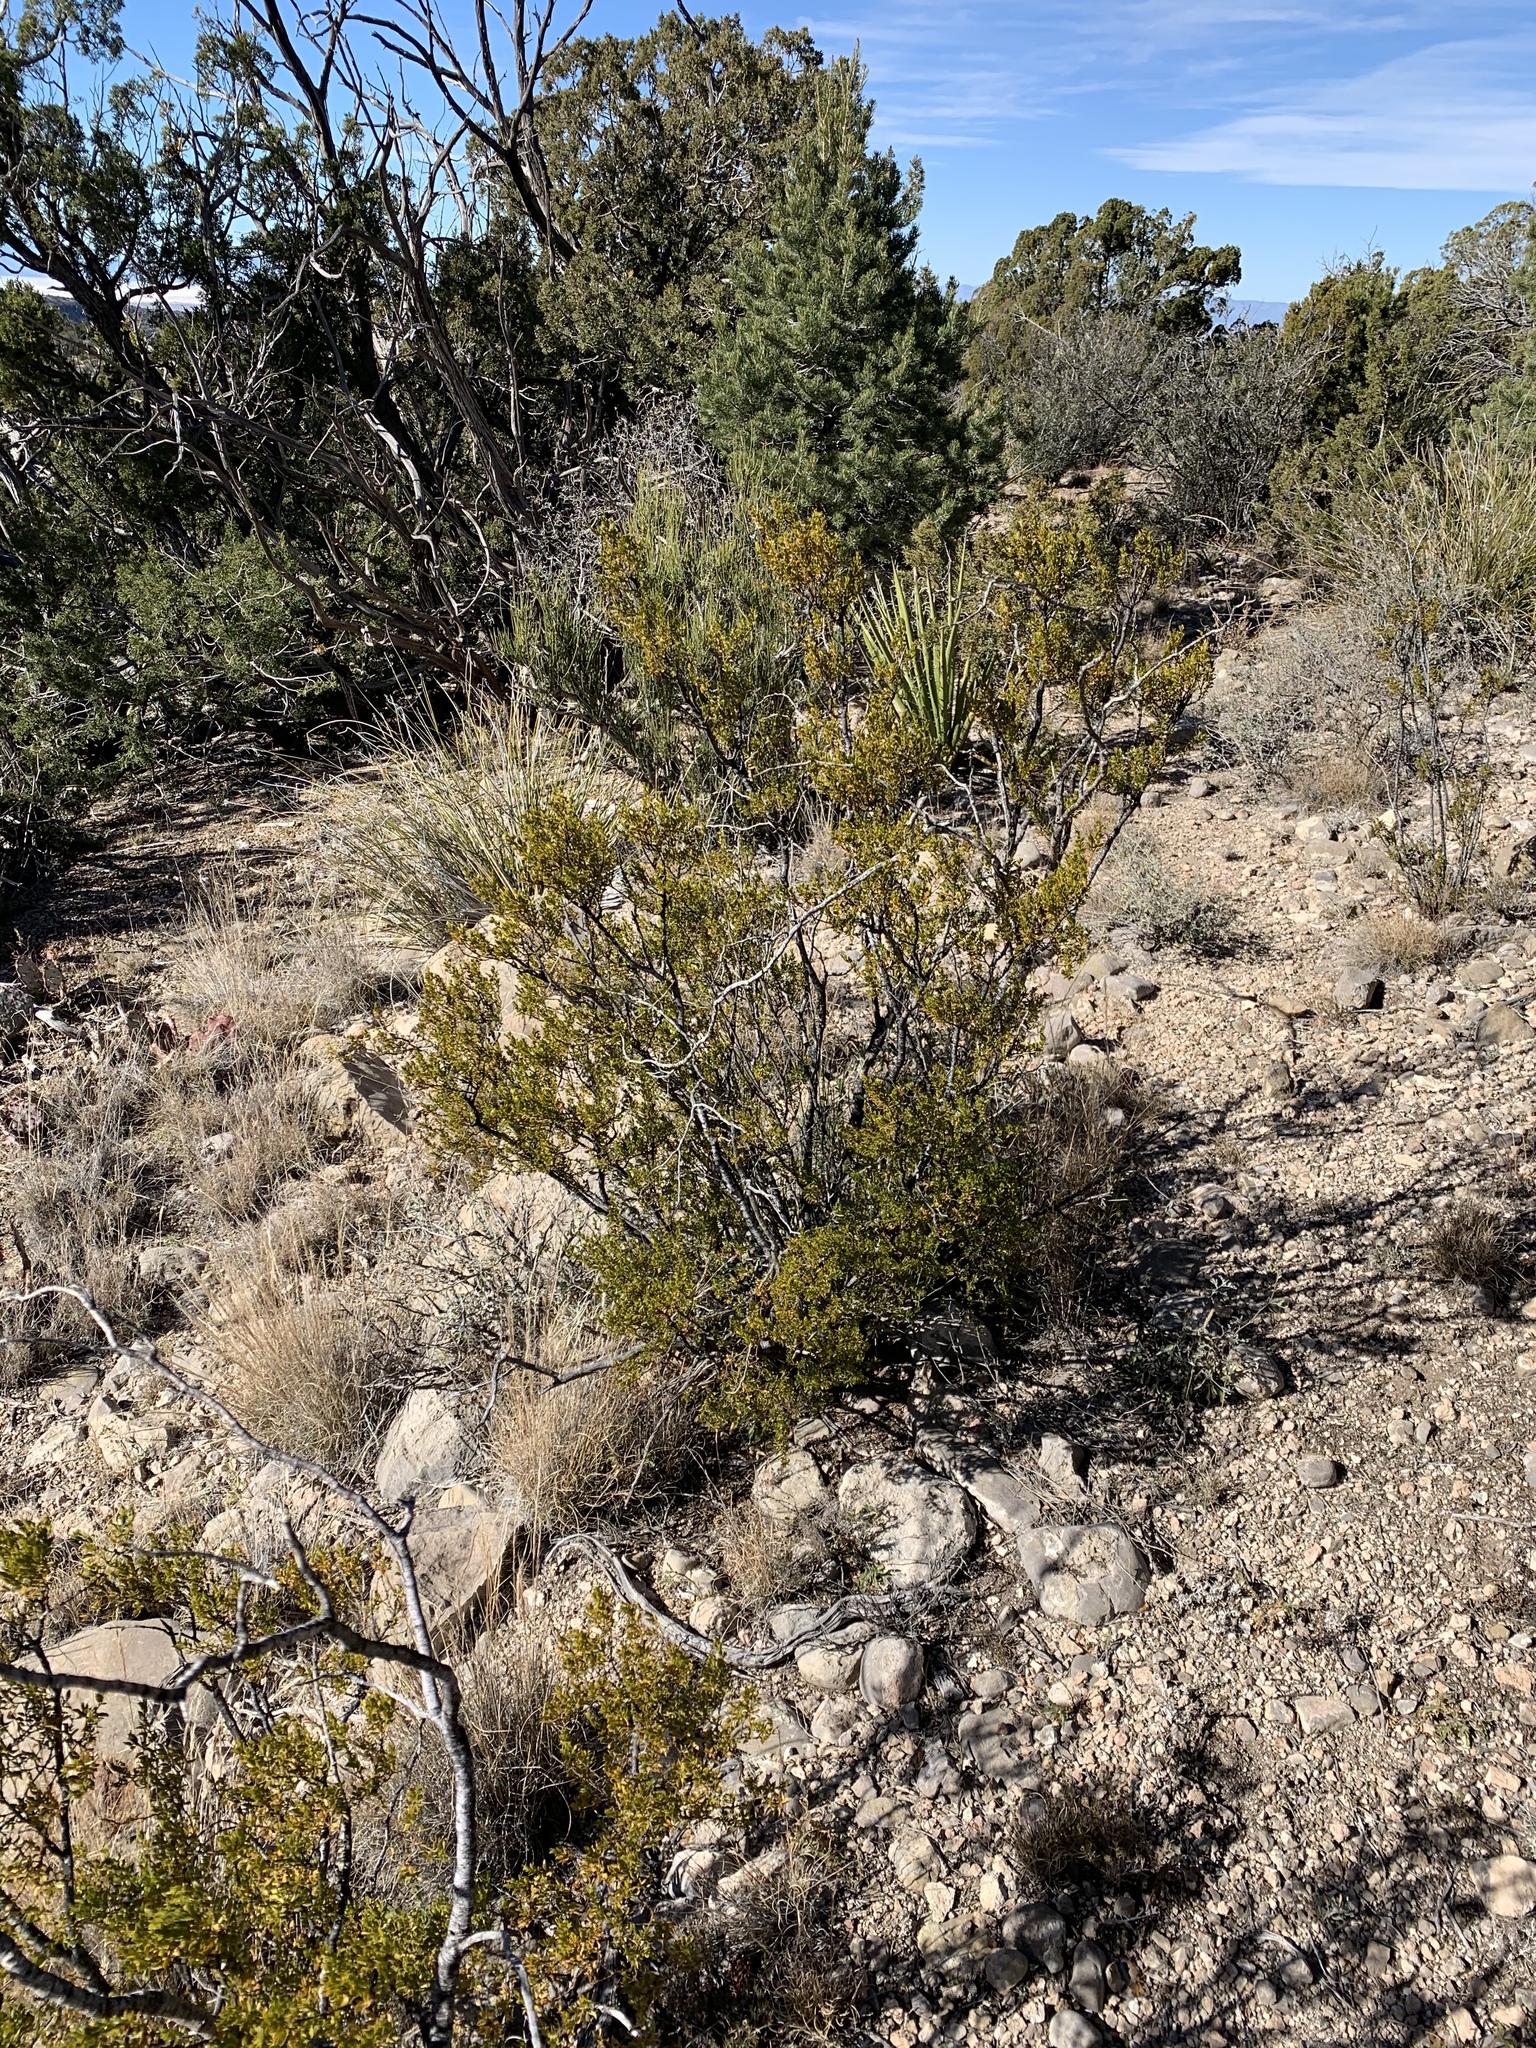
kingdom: Plantae
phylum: Tracheophyta
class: Magnoliopsida
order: Zygophyllales
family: Zygophyllaceae
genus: Larrea
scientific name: Larrea tridentata
